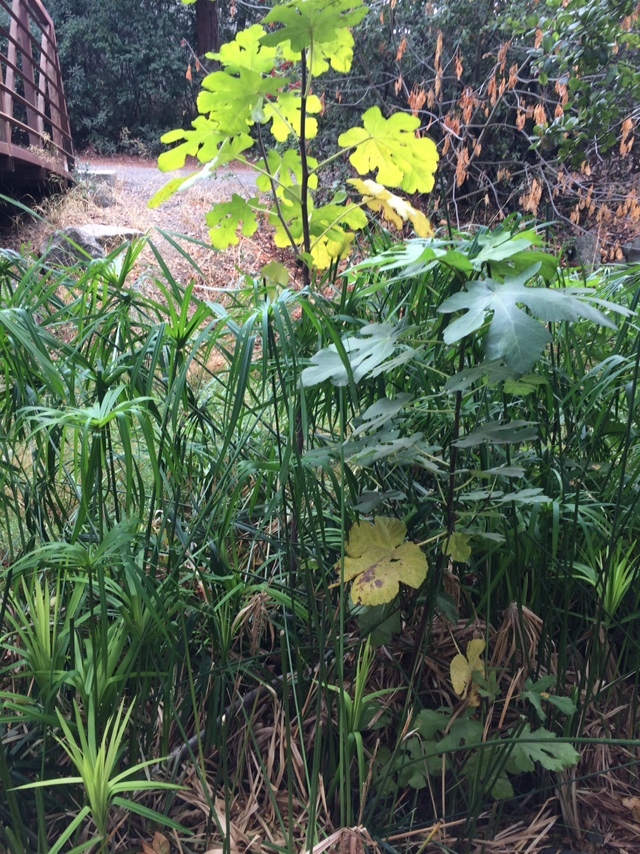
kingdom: Plantae
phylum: Tracheophyta
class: Magnoliopsida
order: Rosales
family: Moraceae
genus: Ficus
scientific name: Ficus carica
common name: Fig
